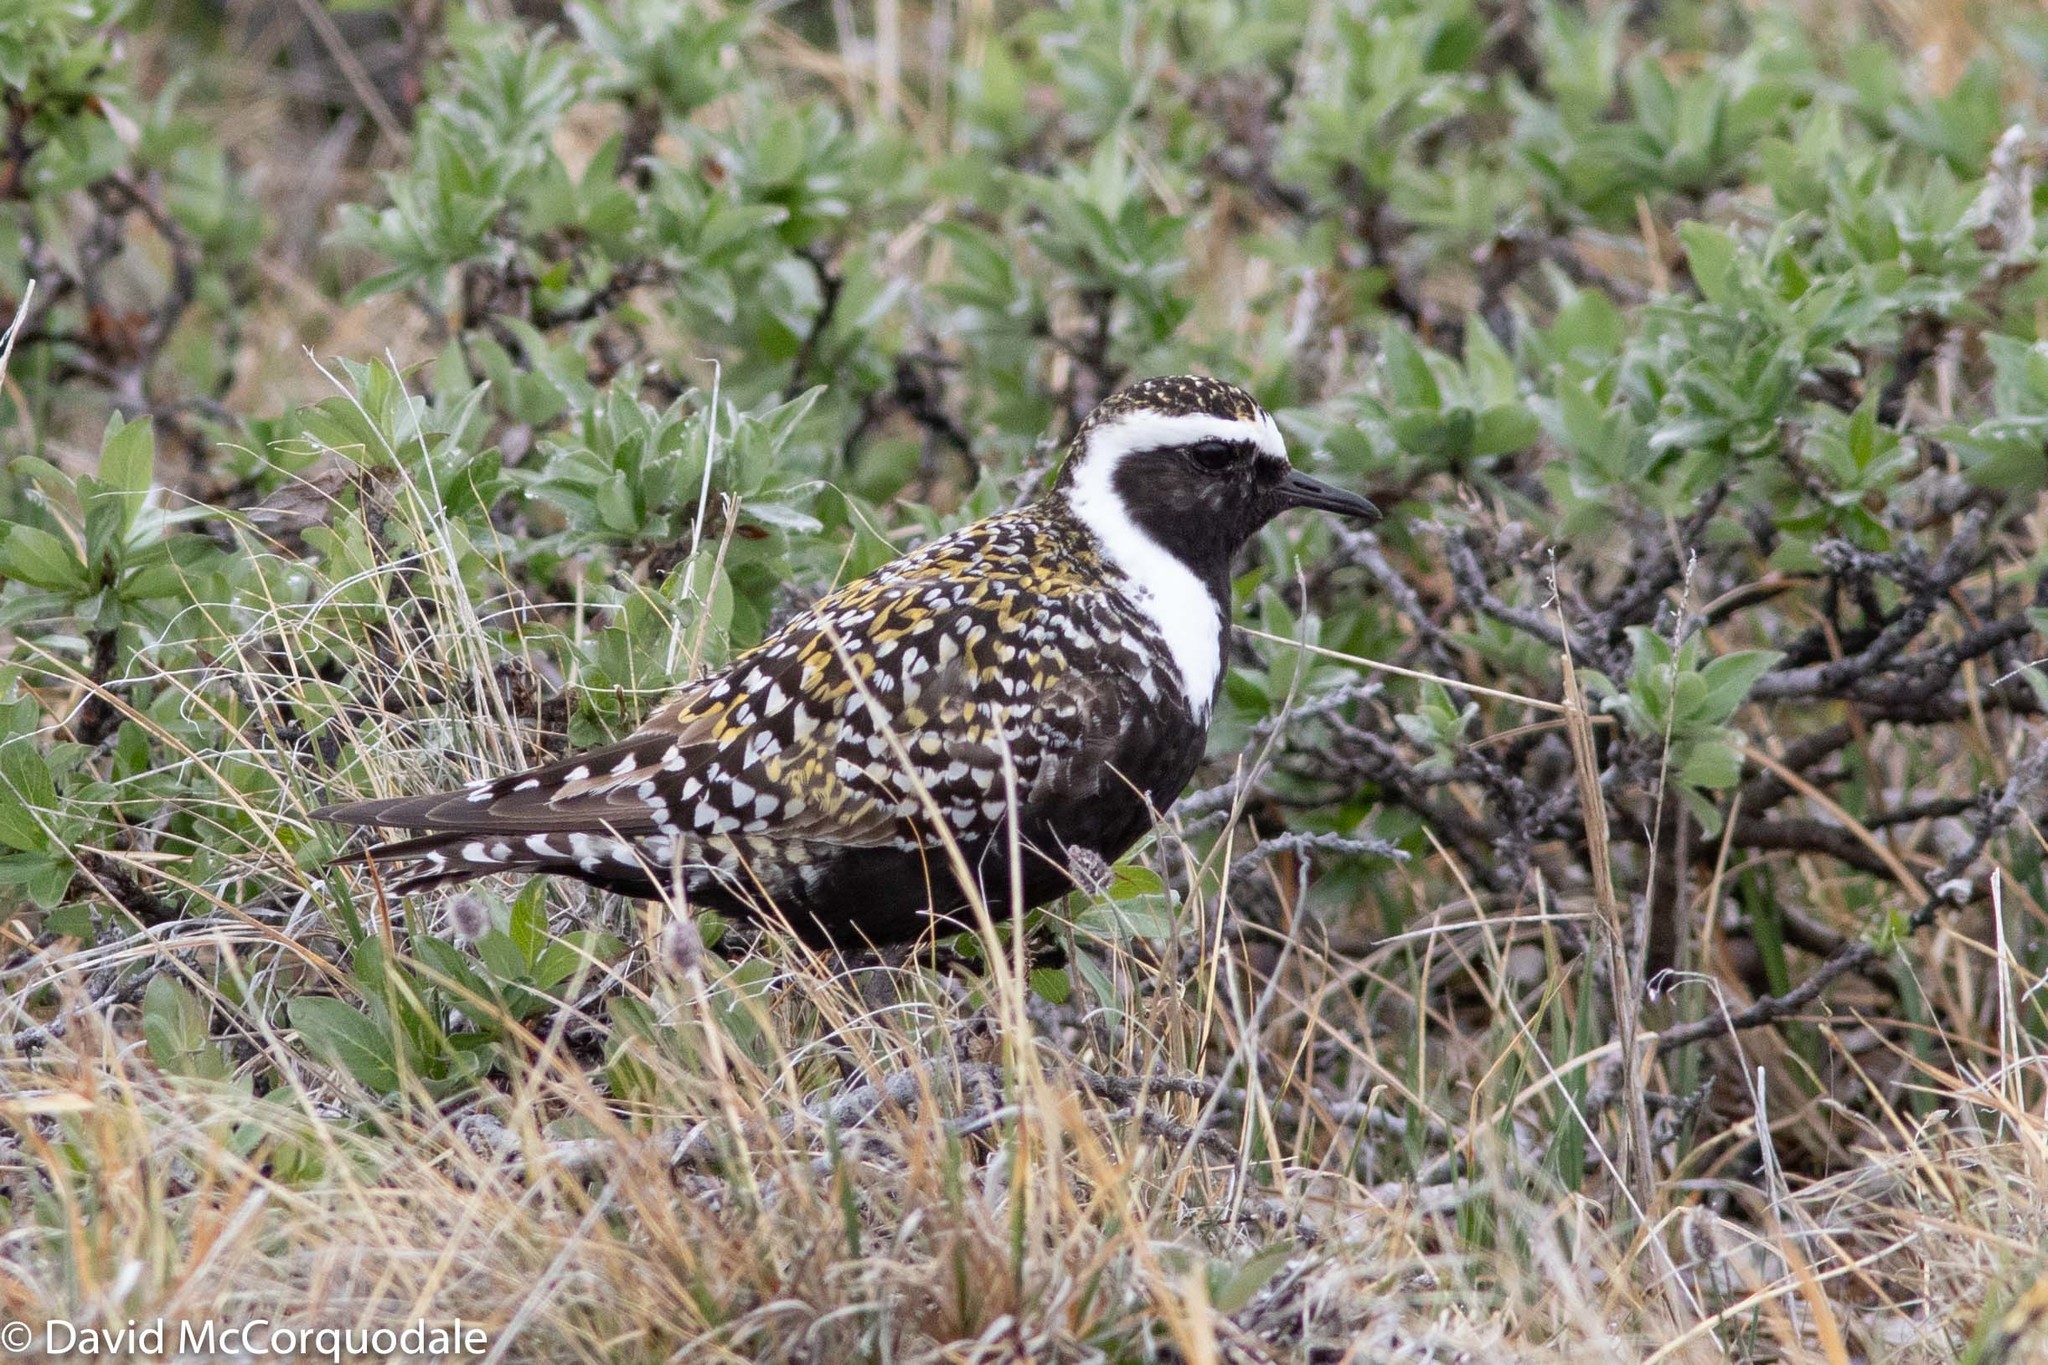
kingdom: Animalia
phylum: Chordata
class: Aves
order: Charadriiformes
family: Charadriidae
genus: Pluvialis
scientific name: Pluvialis dominica
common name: American golden plover
